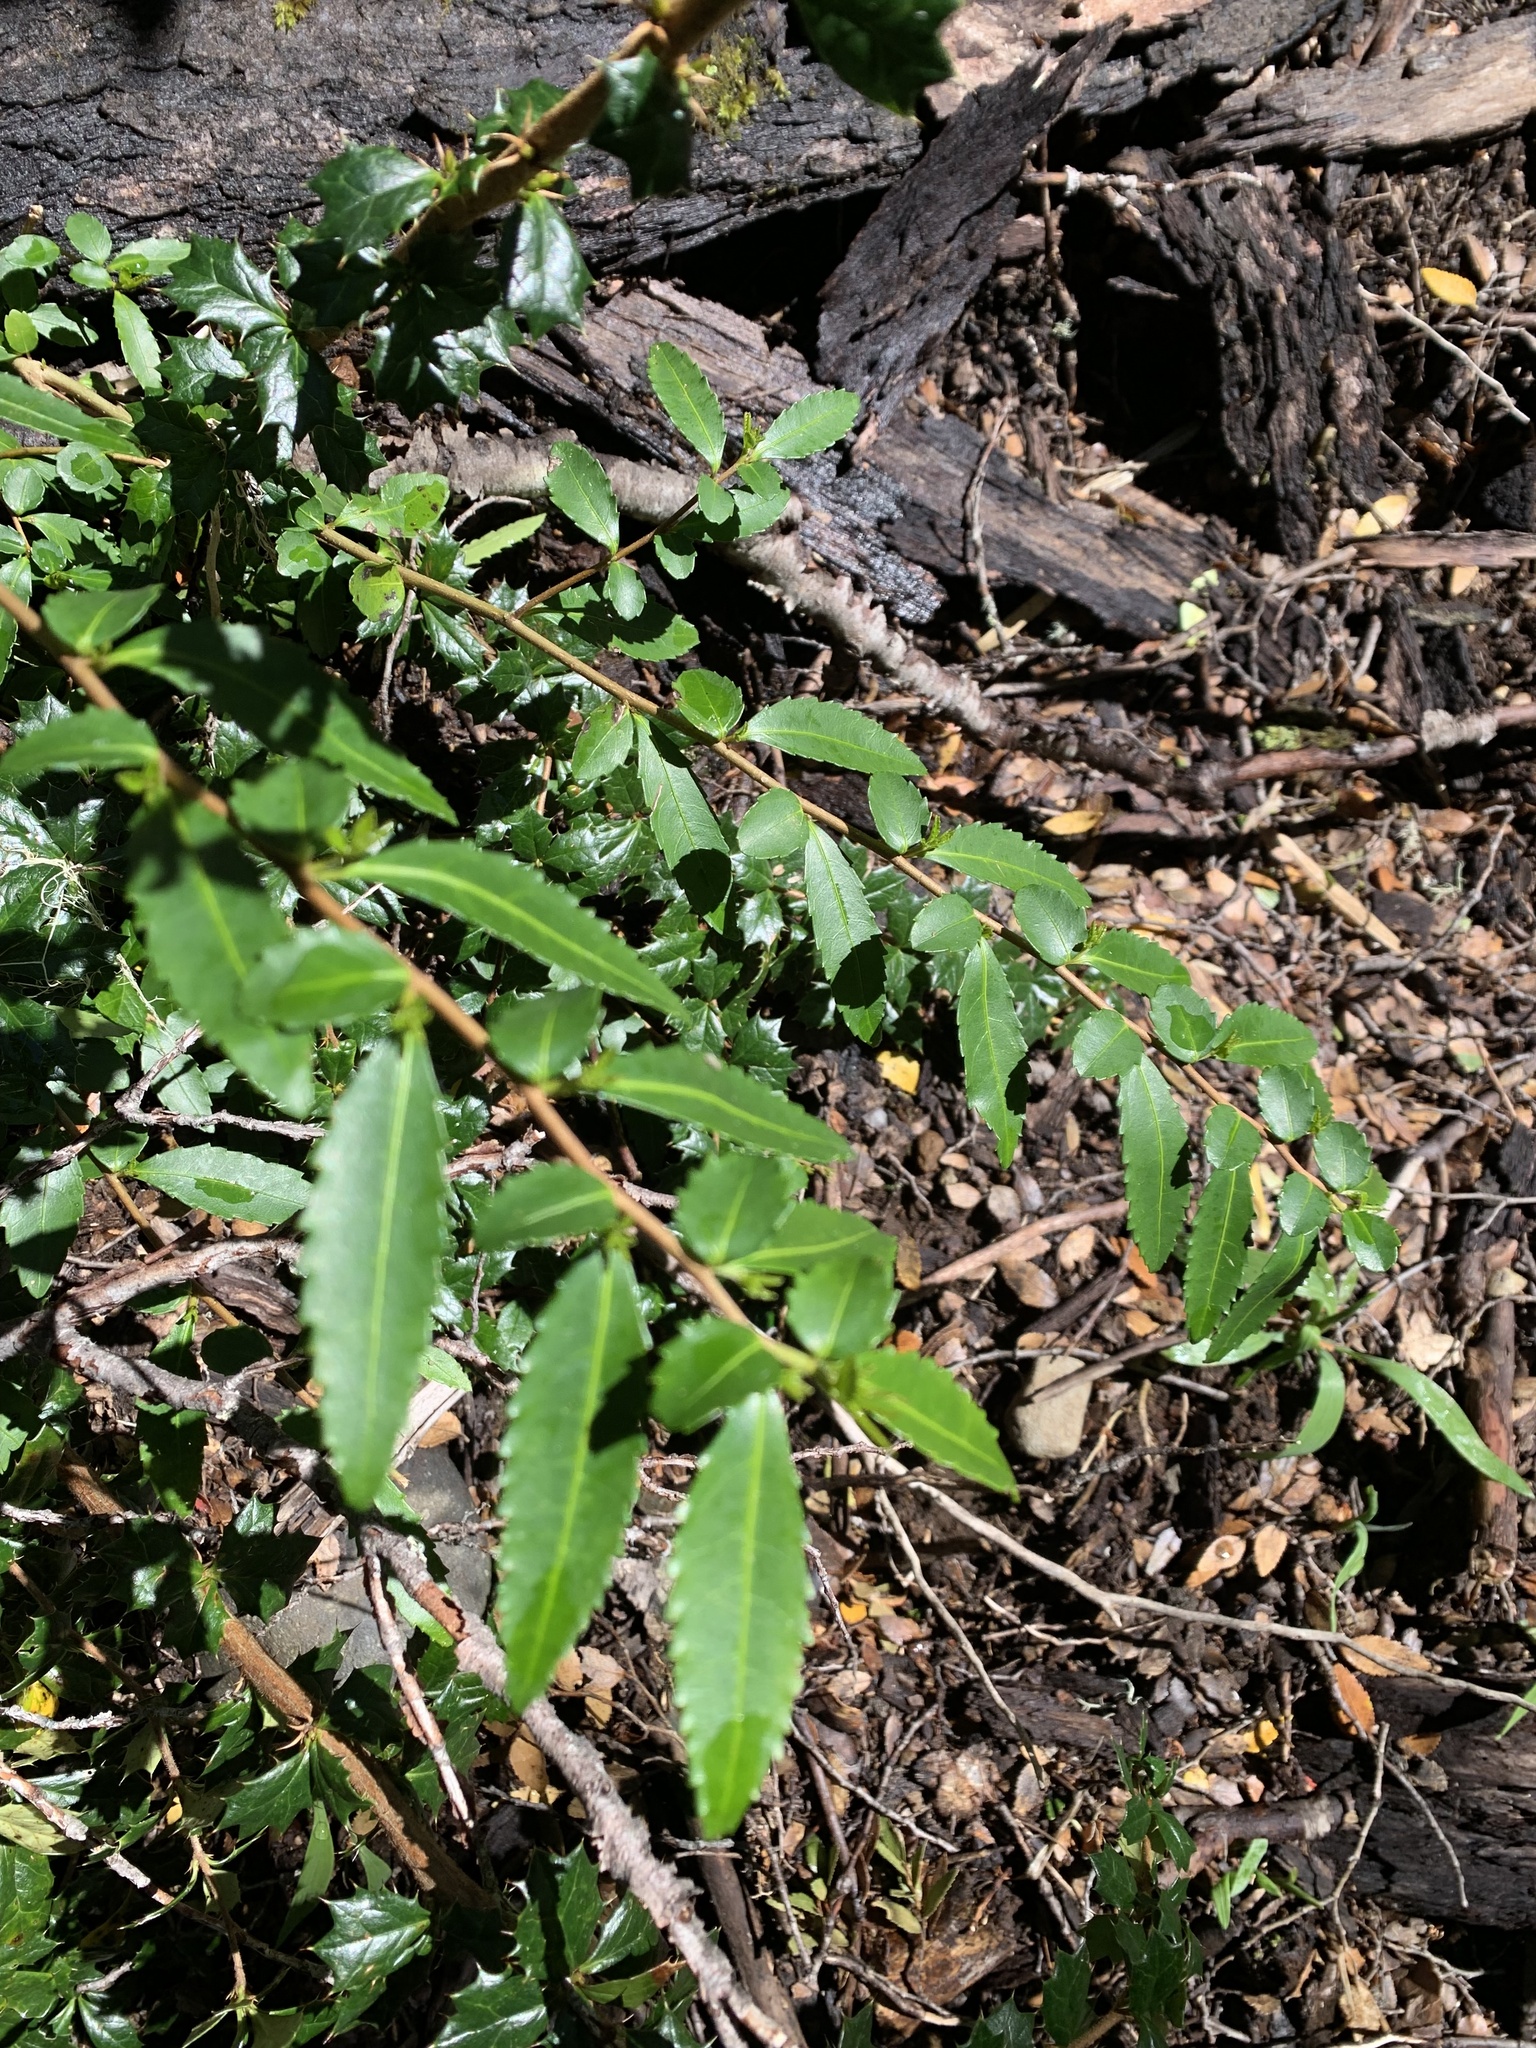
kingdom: Plantae
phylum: Tracheophyta
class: Magnoliopsida
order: Malpighiales
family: Salicaceae
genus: Azara
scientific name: Azara lanceolata
